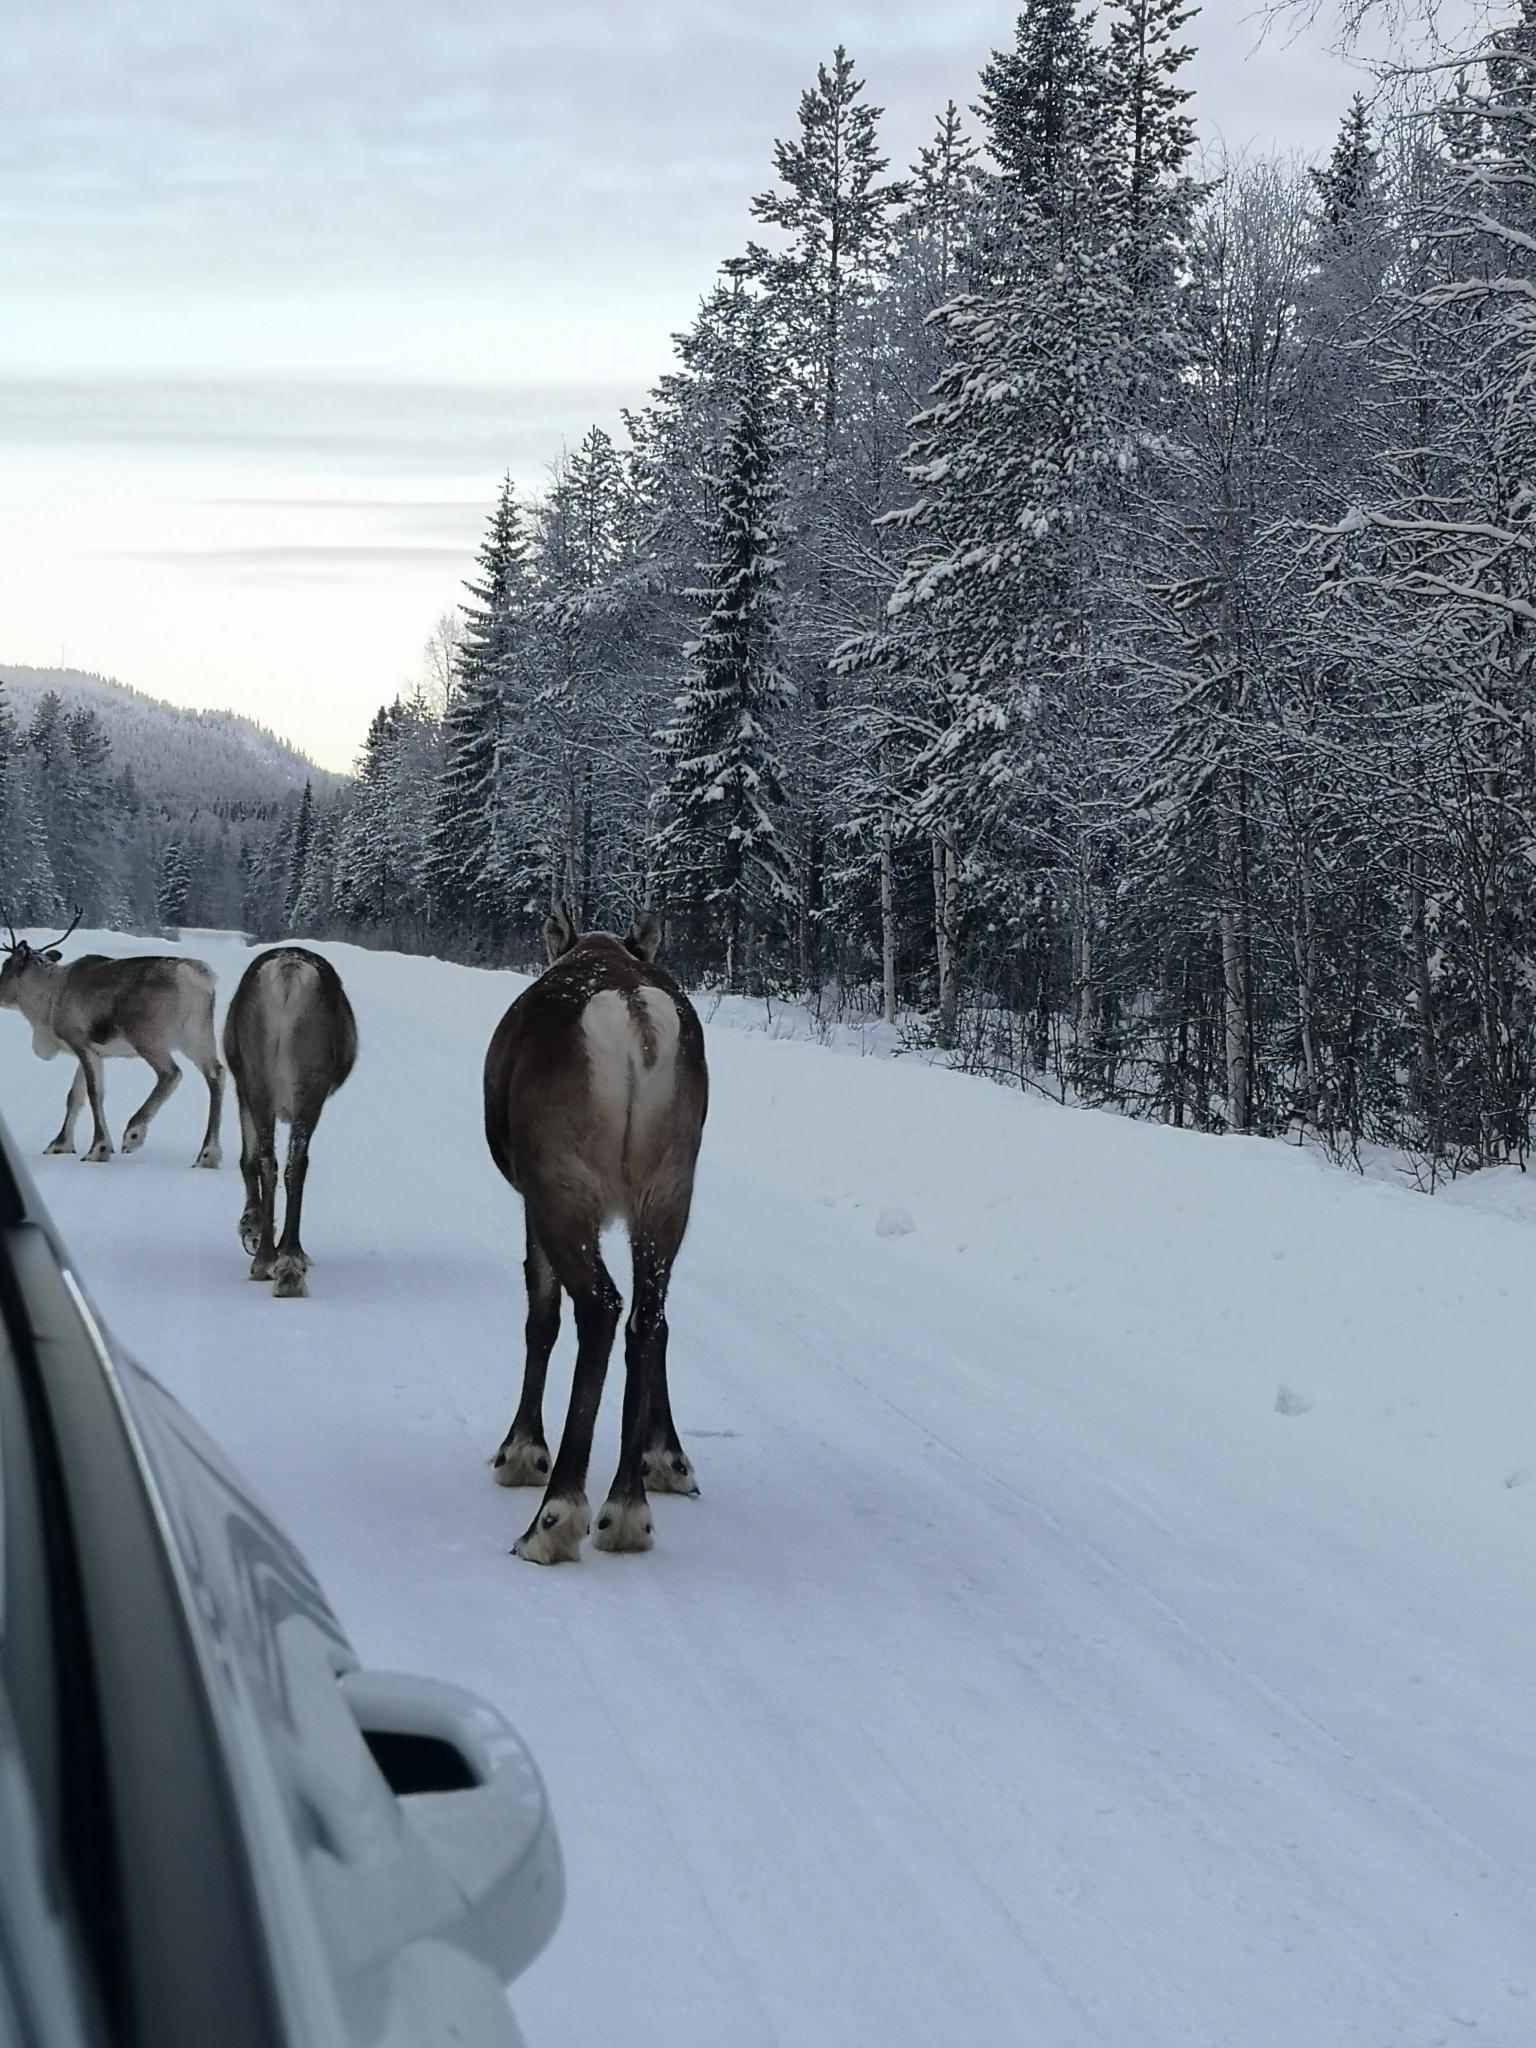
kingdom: Animalia
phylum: Chordata
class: Mammalia
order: Artiodactyla
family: Cervidae
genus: Rangifer
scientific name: Rangifer tarandus
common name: Reindeer
